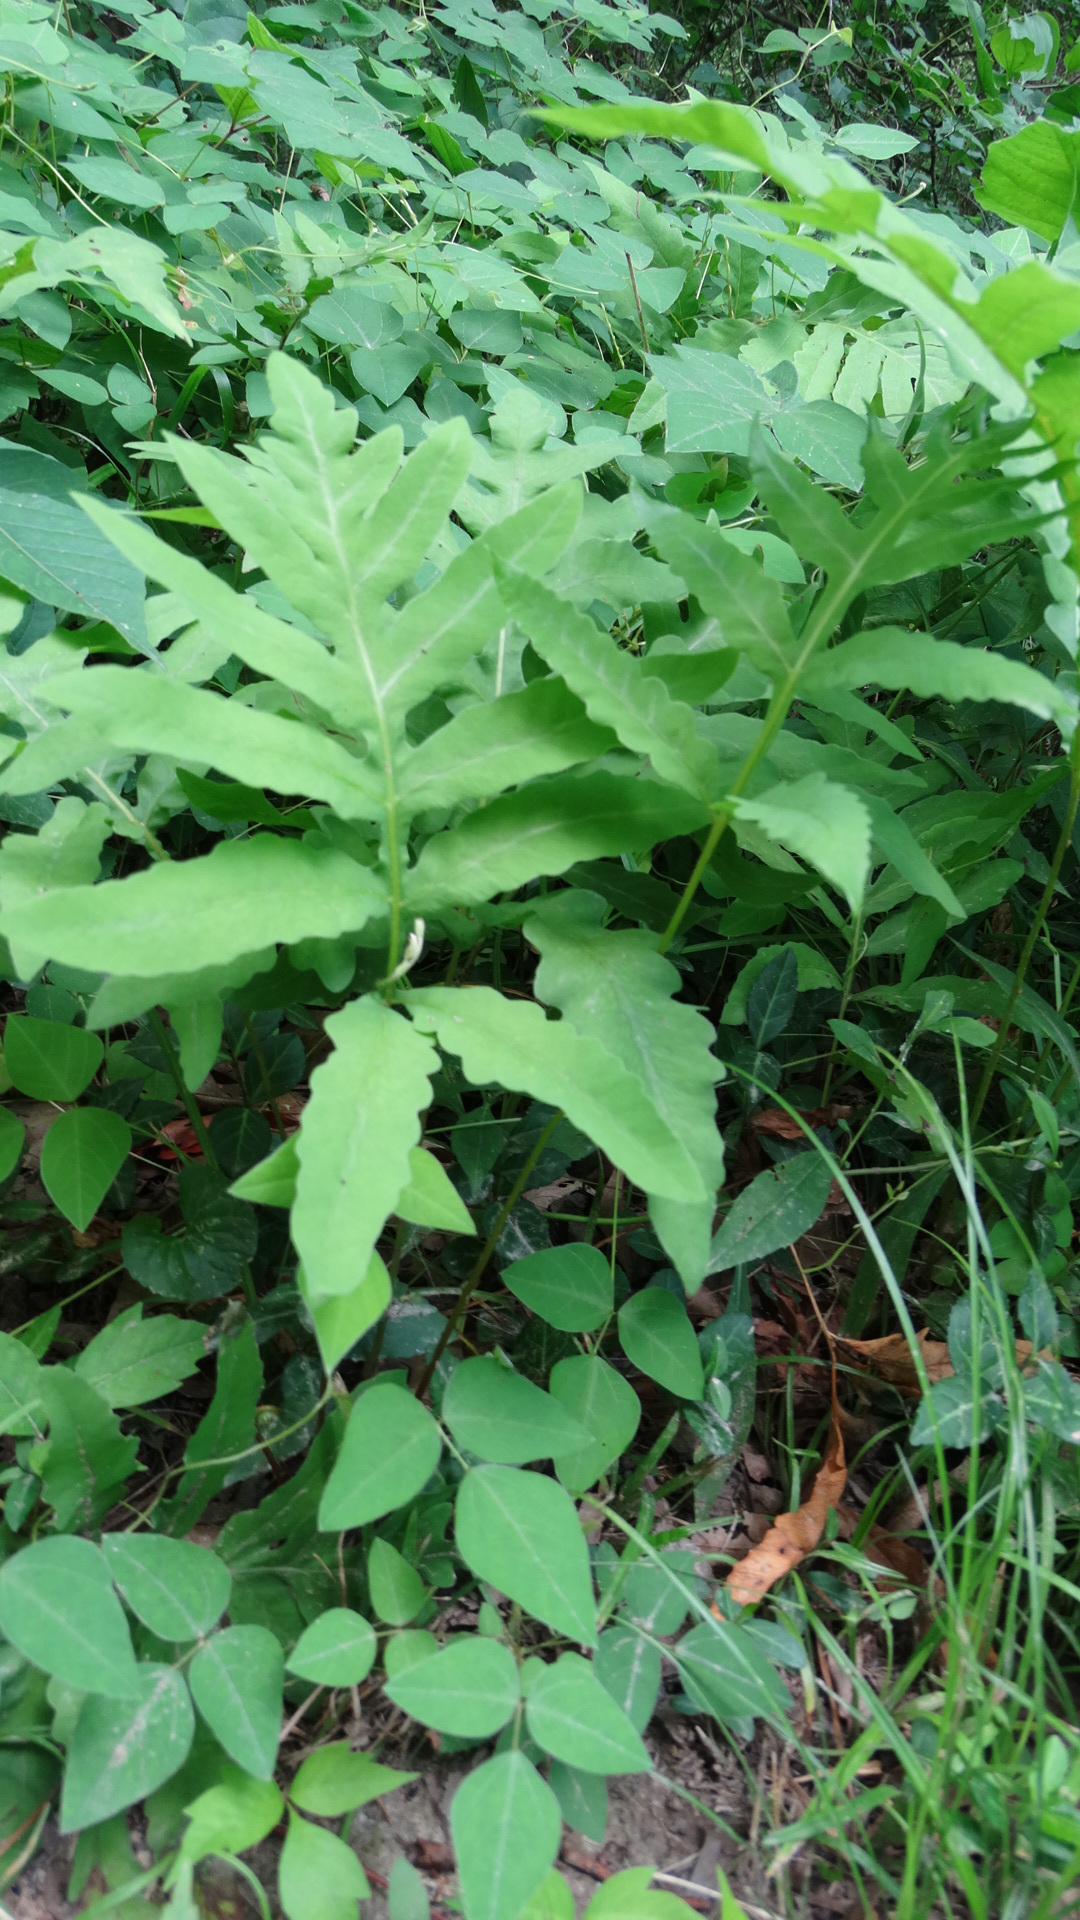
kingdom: Plantae
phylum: Tracheophyta
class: Polypodiopsida
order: Polypodiales
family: Onocleaceae
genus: Onoclea
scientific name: Onoclea sensibilis
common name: Sensitive fern
